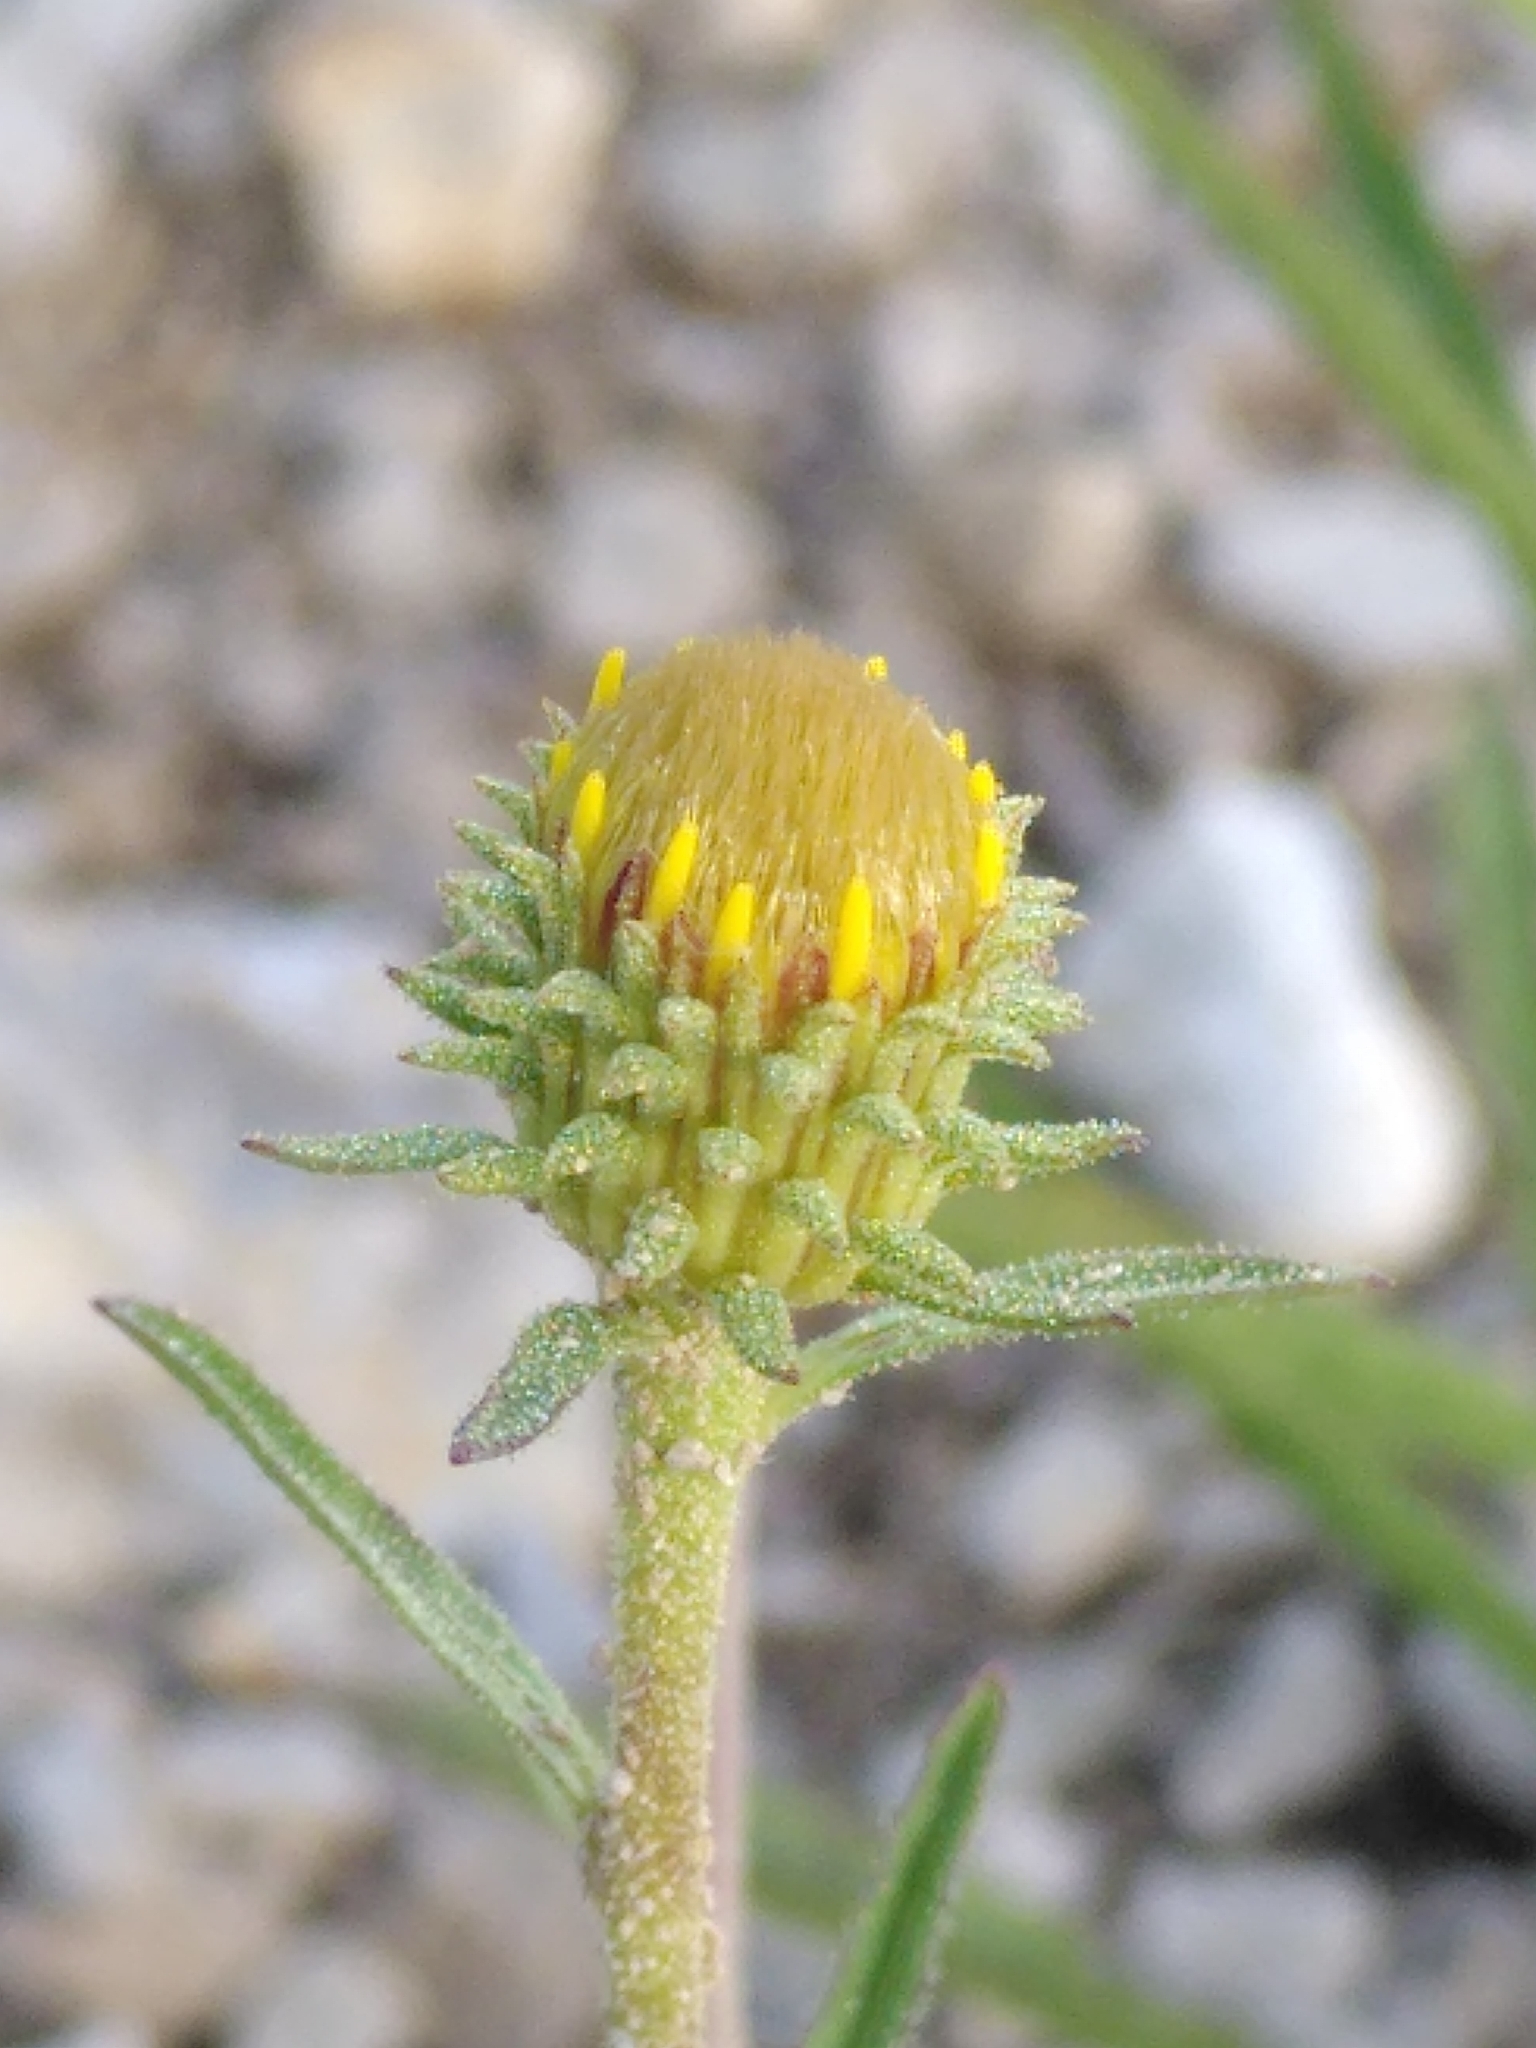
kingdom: Plantae
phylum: Tracheophyta
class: Magnoliopsida
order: Asterales
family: Asteraceae
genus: Jasonia
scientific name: Jasonia tuberosa
